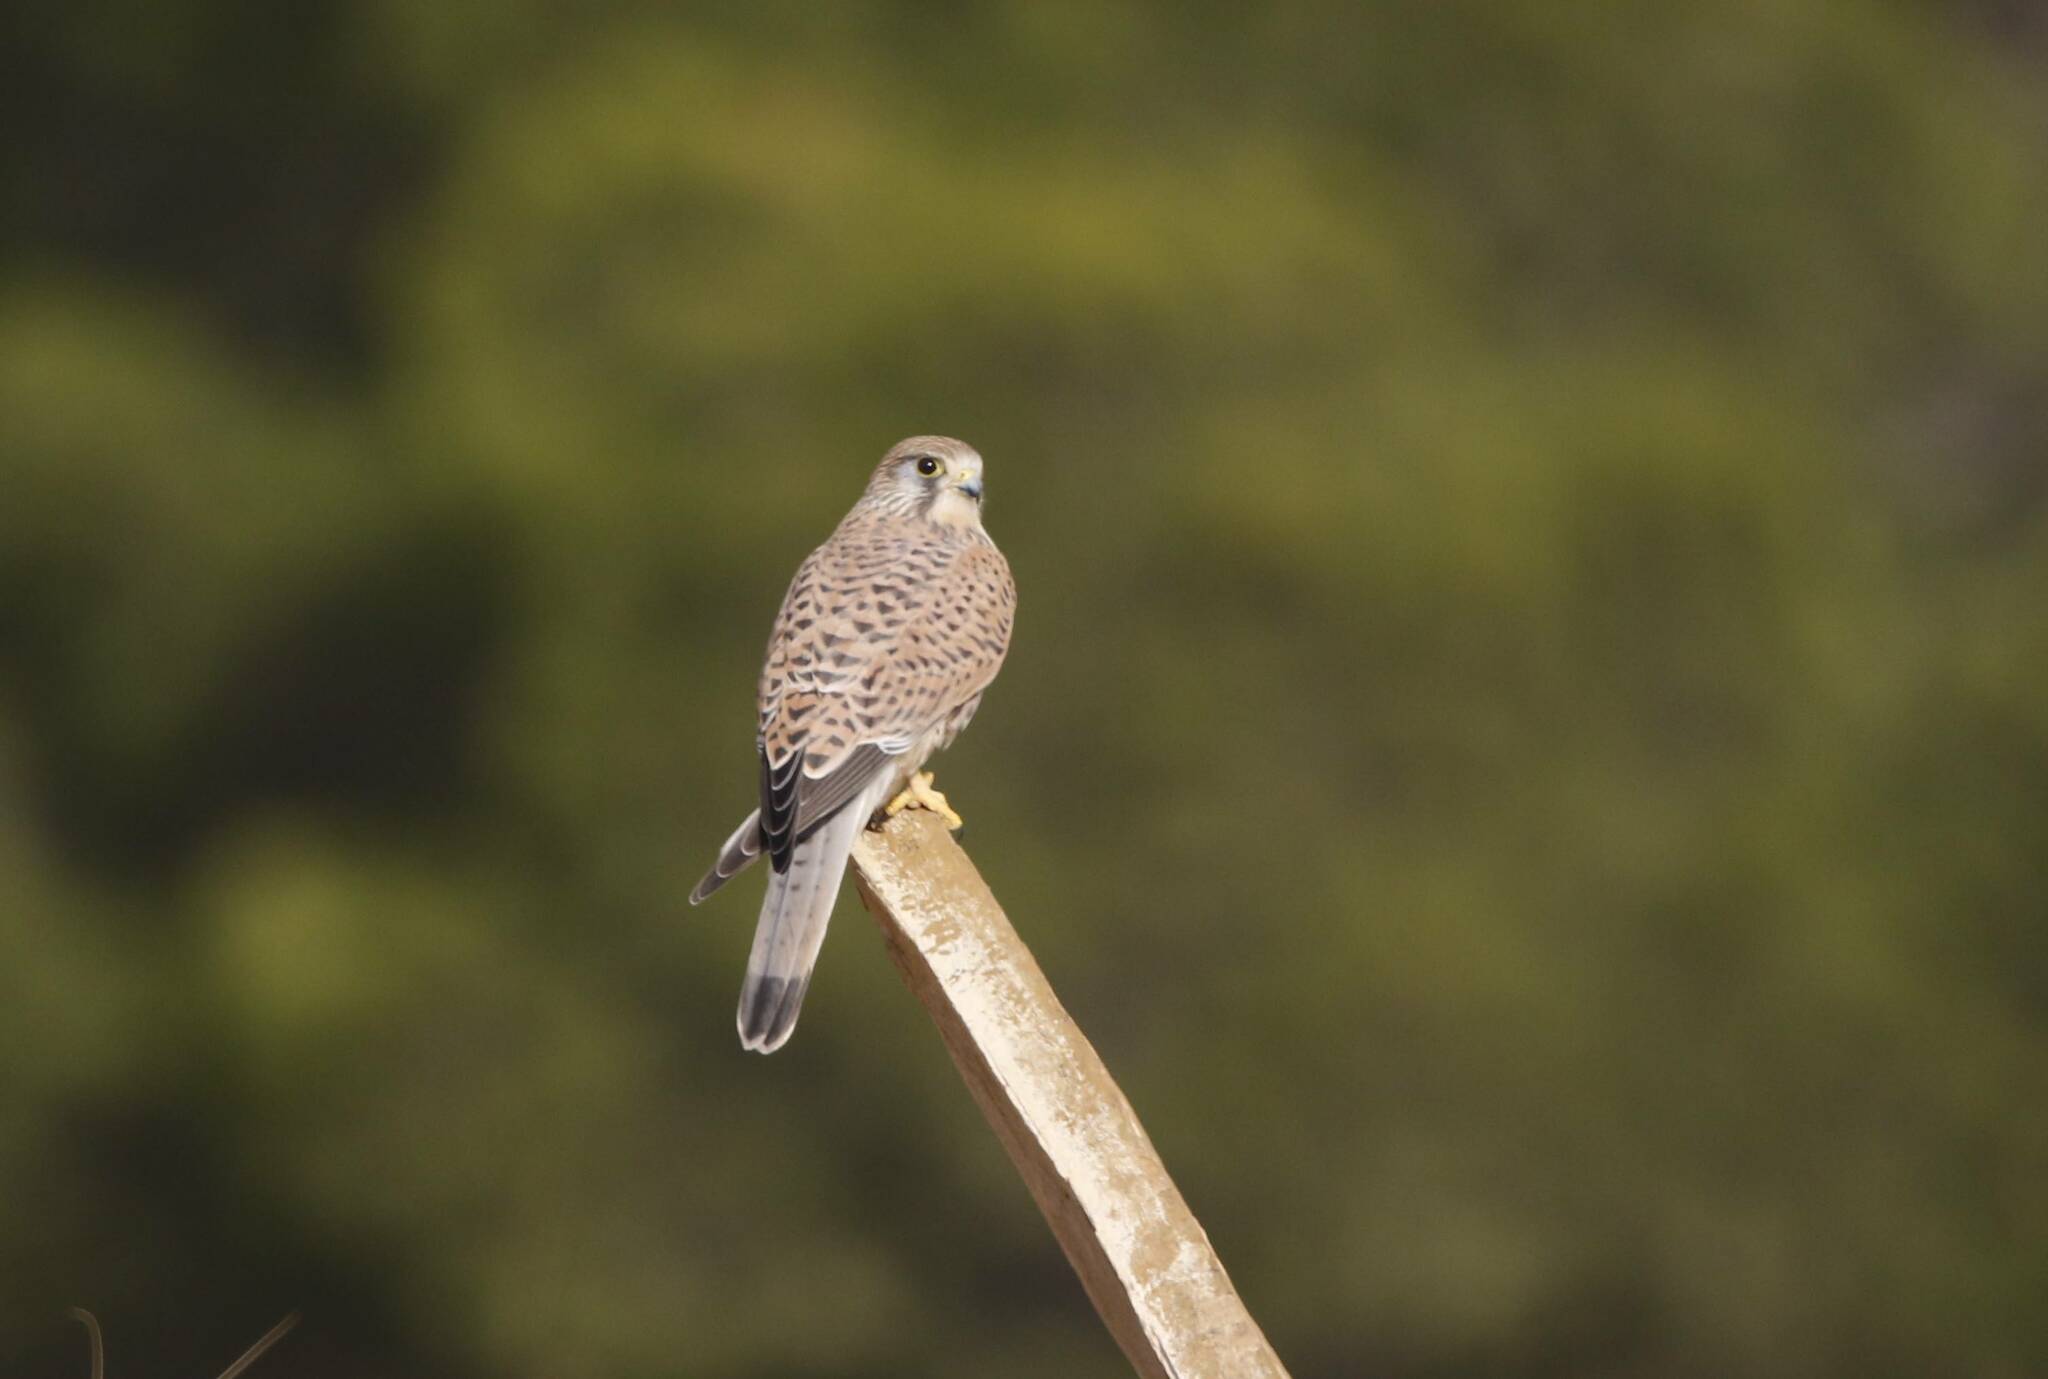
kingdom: Animalia
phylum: Chordata
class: Aves
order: Falconiformes
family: Falconidae
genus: Falco
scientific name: Falco tinnunculus
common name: Common kestrel
